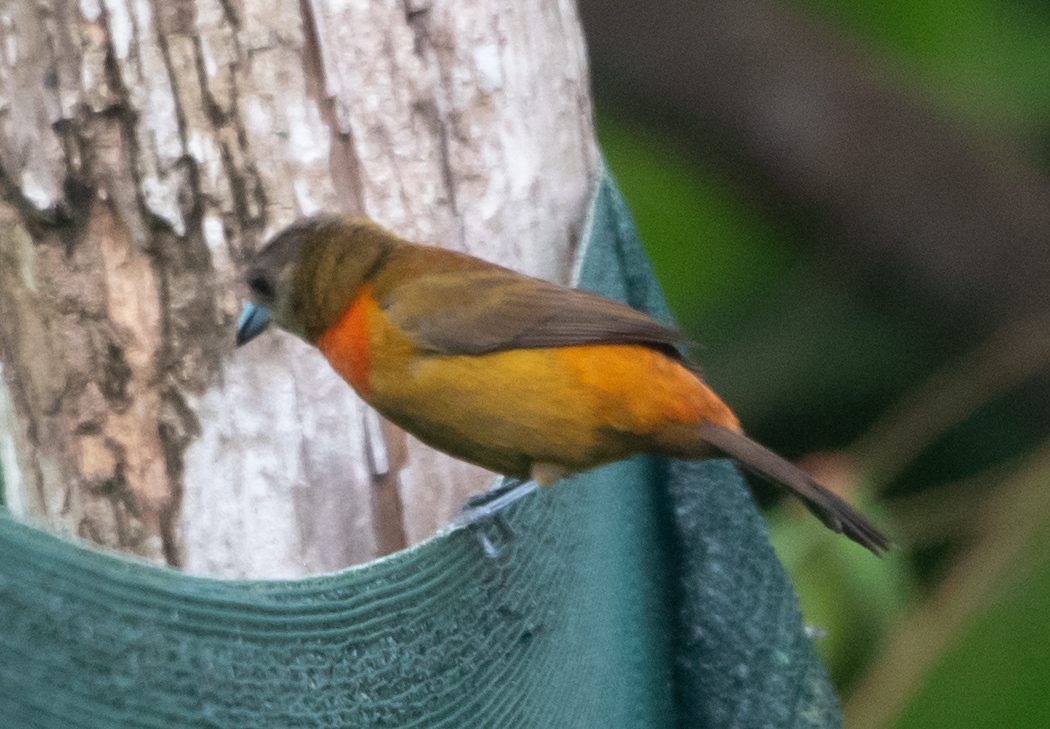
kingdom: Animalia
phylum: Chordata
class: Aves
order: Passeriformes
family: Thraupidae
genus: Ramphocelus
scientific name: Ramphocelus passerinii
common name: Passerini's tanager
